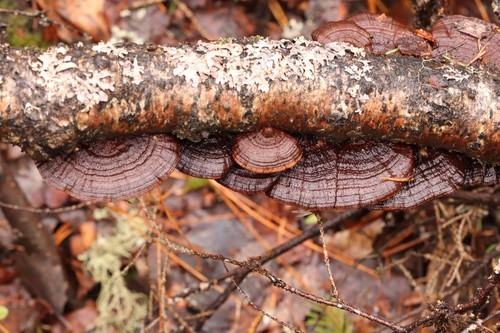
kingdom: Fungi
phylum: Basidiomycota
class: Agaricomycetes
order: Polyporales
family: Polyporaceae
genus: Daedaleopsis
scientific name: Daedaleopsis confragosa
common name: Blushing bracket
